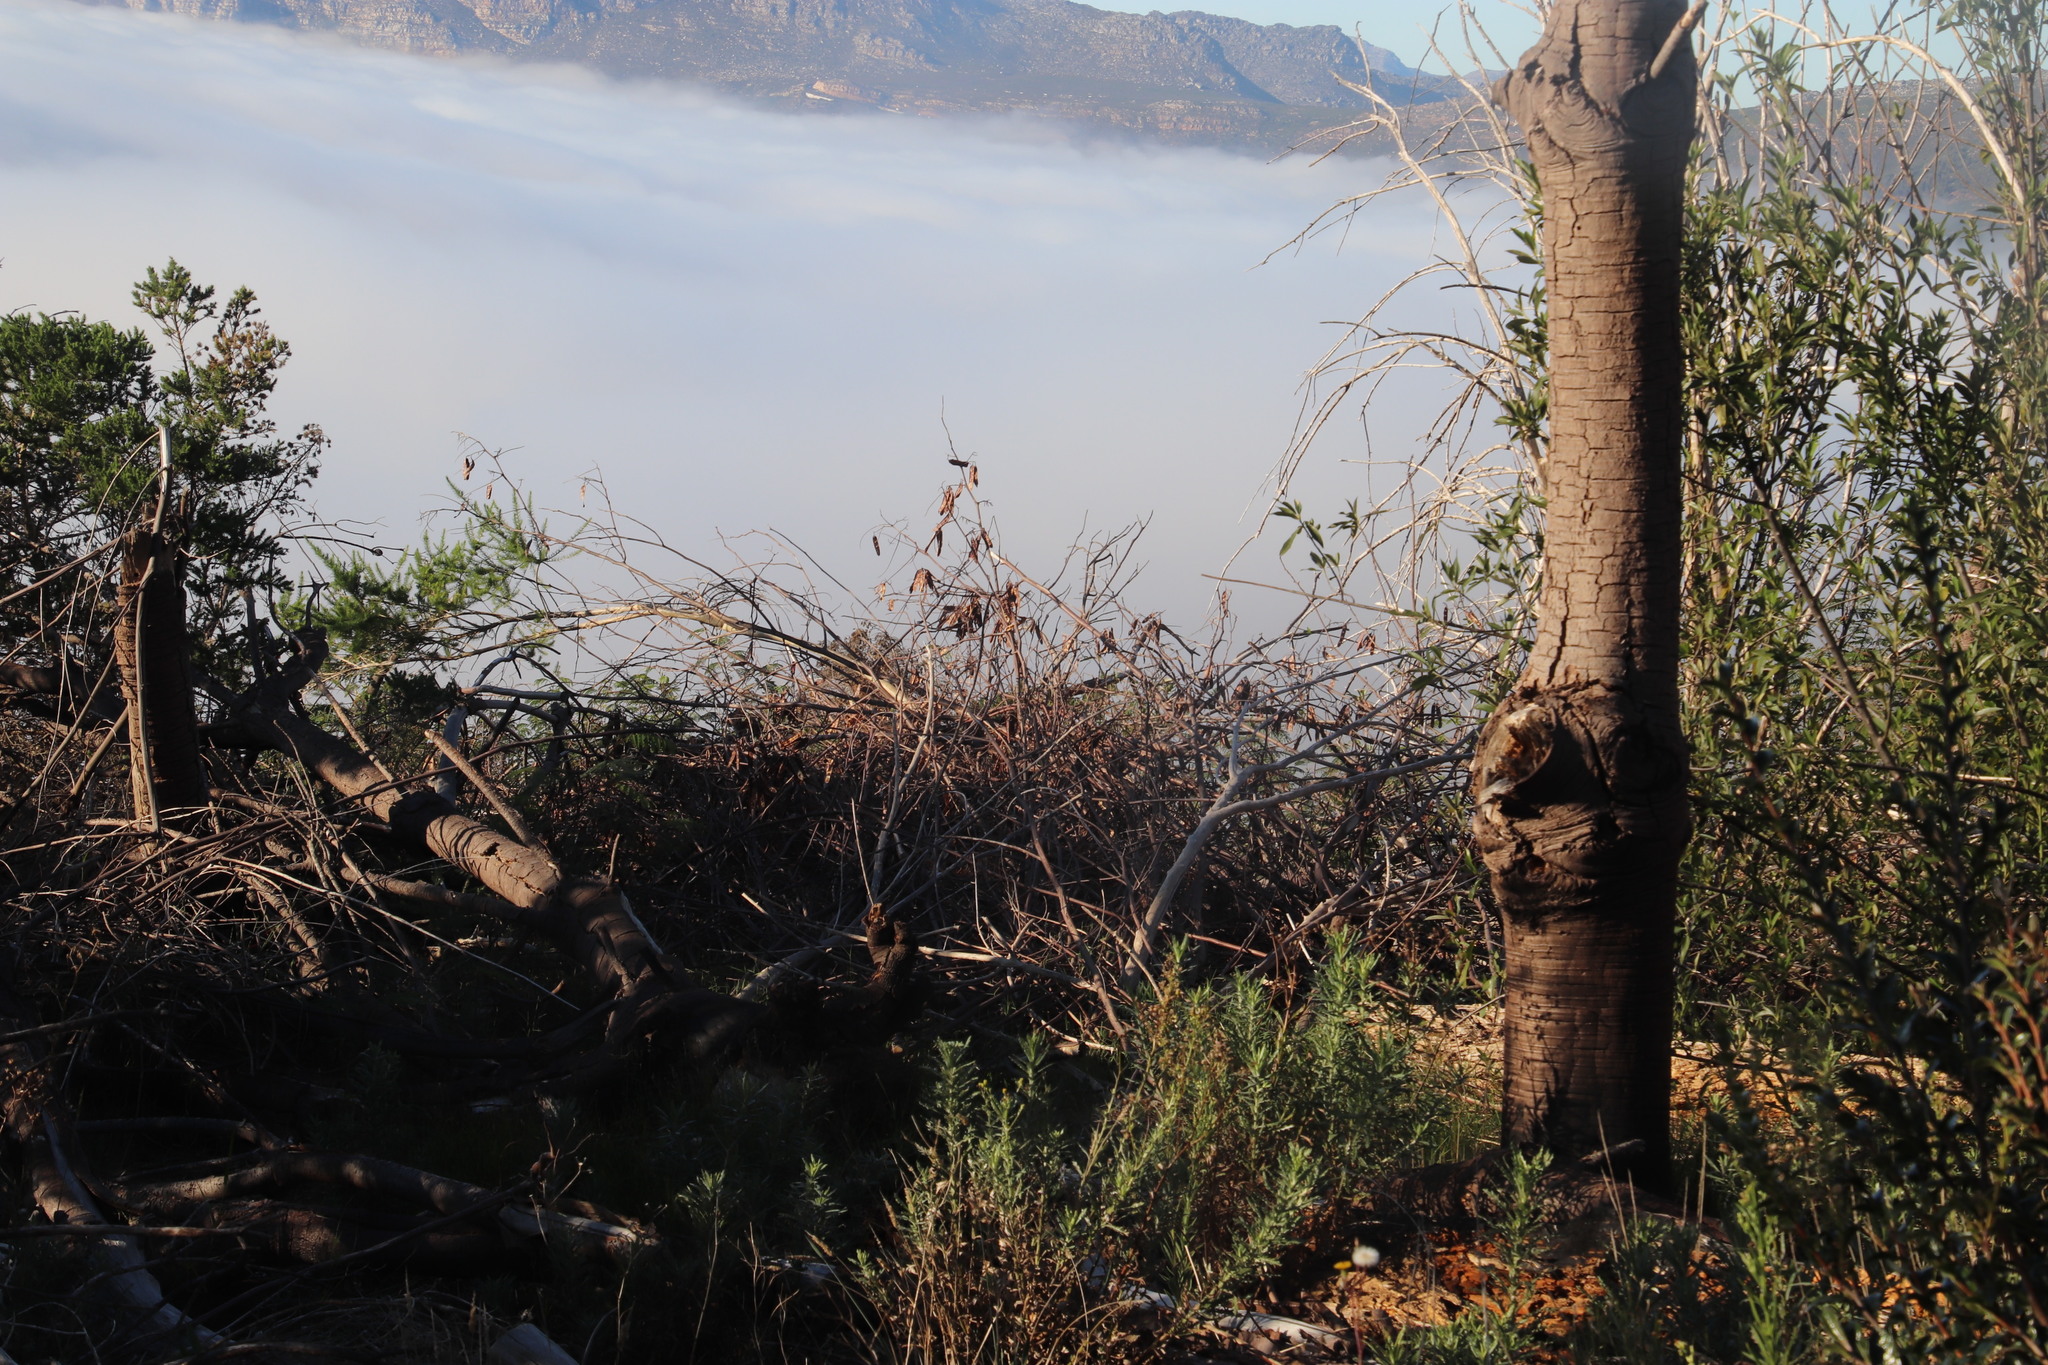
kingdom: Plantae
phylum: Tracheophyta
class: Magnoliopsida
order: Fabales
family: Fabaceae
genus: Paraserianthes
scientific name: Paraserianthes lophantha
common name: Plume albizia
